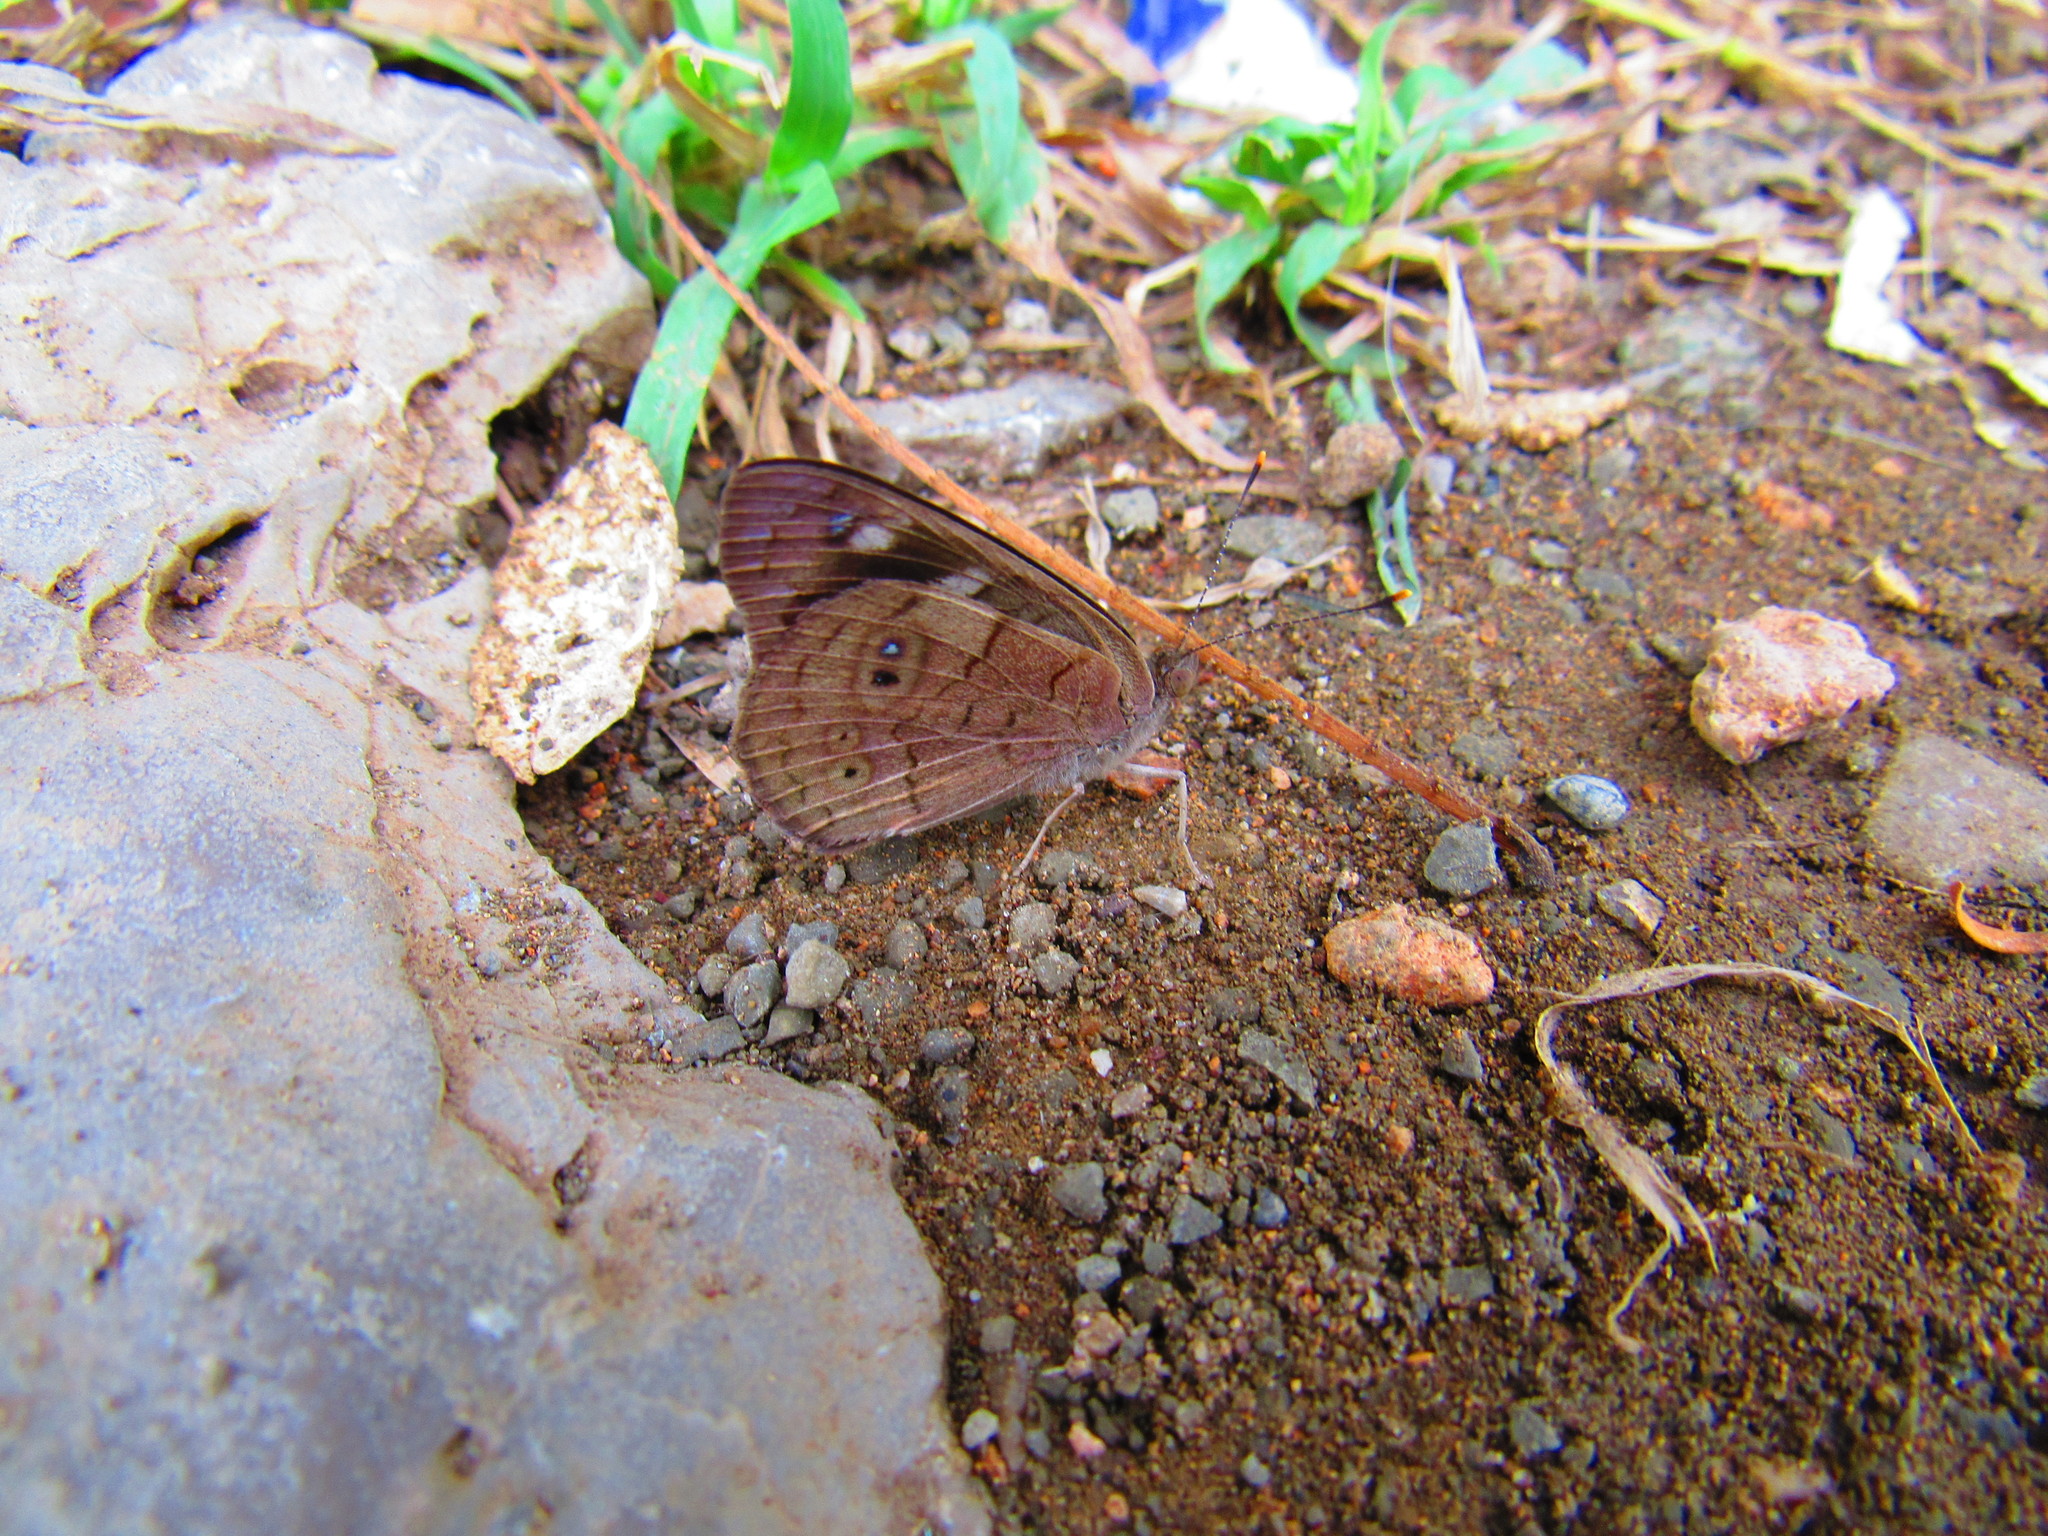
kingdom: Animalia
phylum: Arthropoda
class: Insecta
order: Lepidoptera
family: Nymphalidae
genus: Eunica
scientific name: Eunica monima
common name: Dingy purplewing
